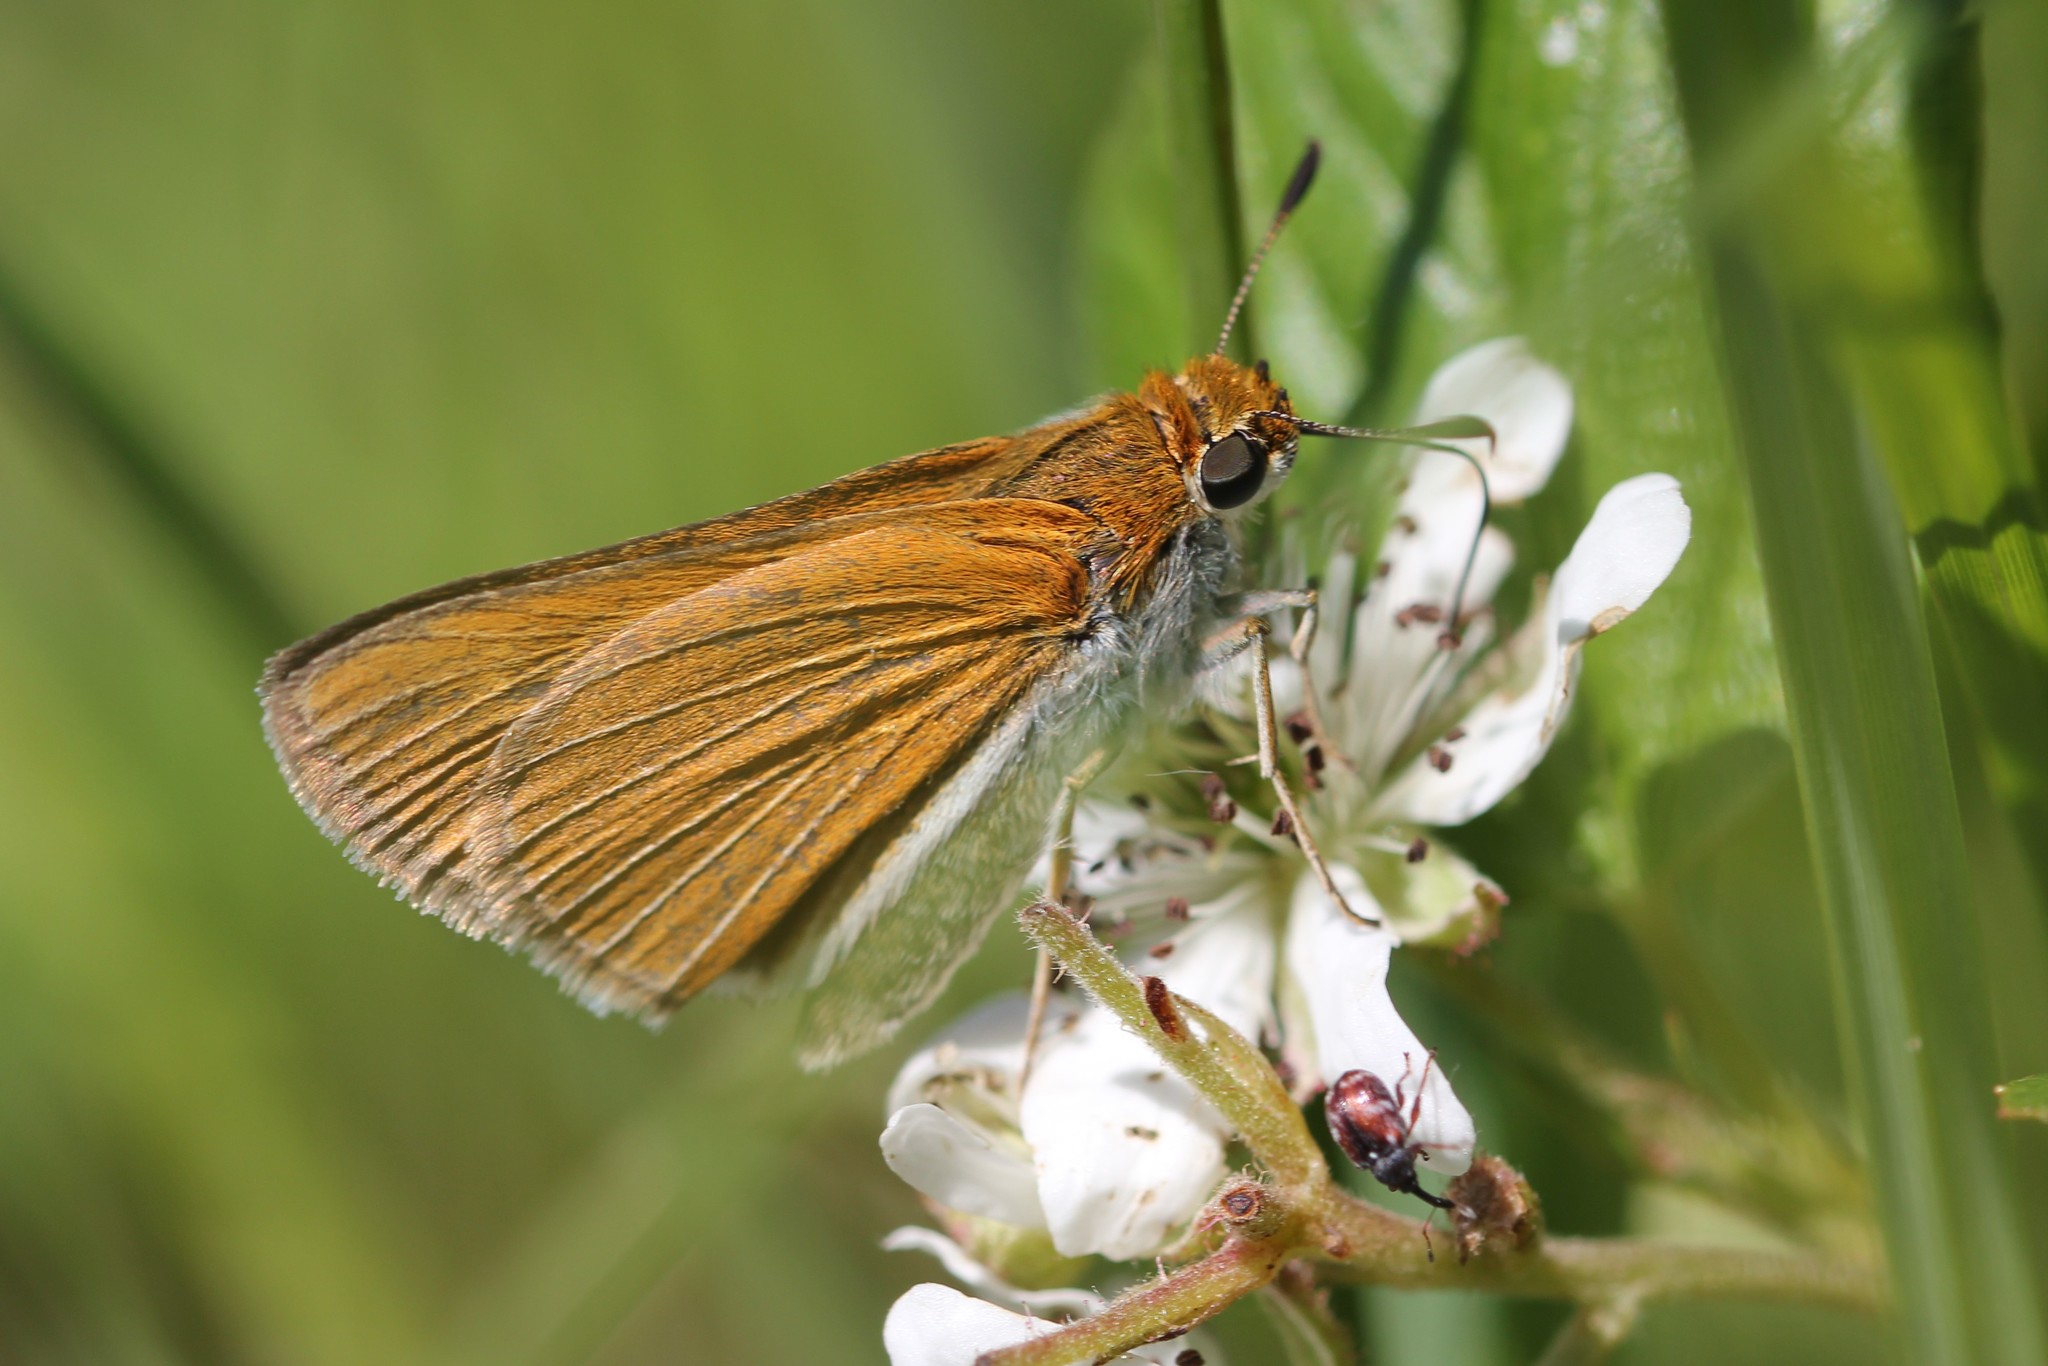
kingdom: Animalia
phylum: Arthropoda
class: Insecta
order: Lepidoptera
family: Hesperiidae
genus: Euphyes
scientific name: Euphyes bimacula
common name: Two-spotted skipper
